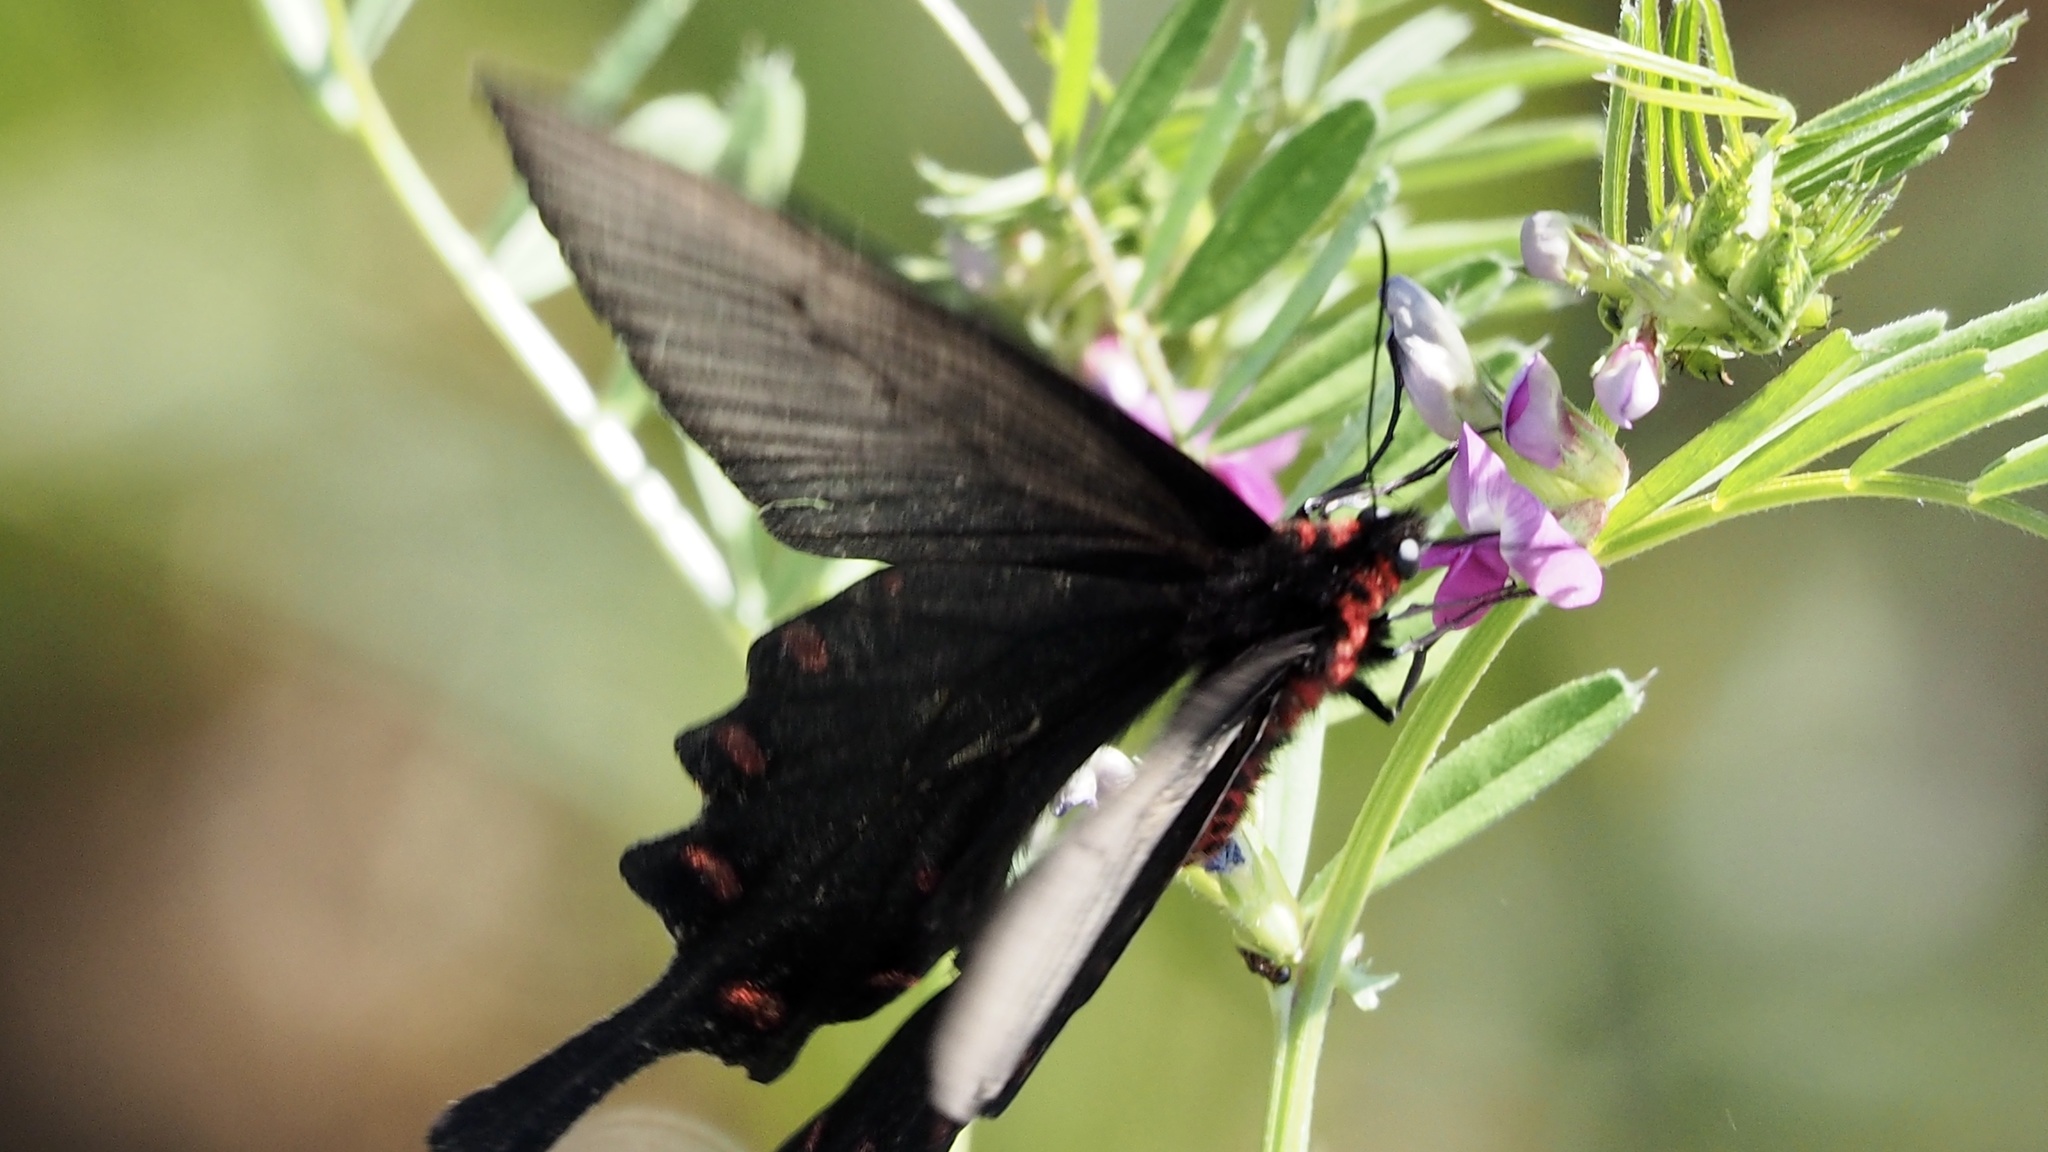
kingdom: Animalia
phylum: Arthropoda
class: Insecta
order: Lepidoptera
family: Papilionidae
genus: Byasa
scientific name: Byasa alcinous
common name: Chinese windmill
